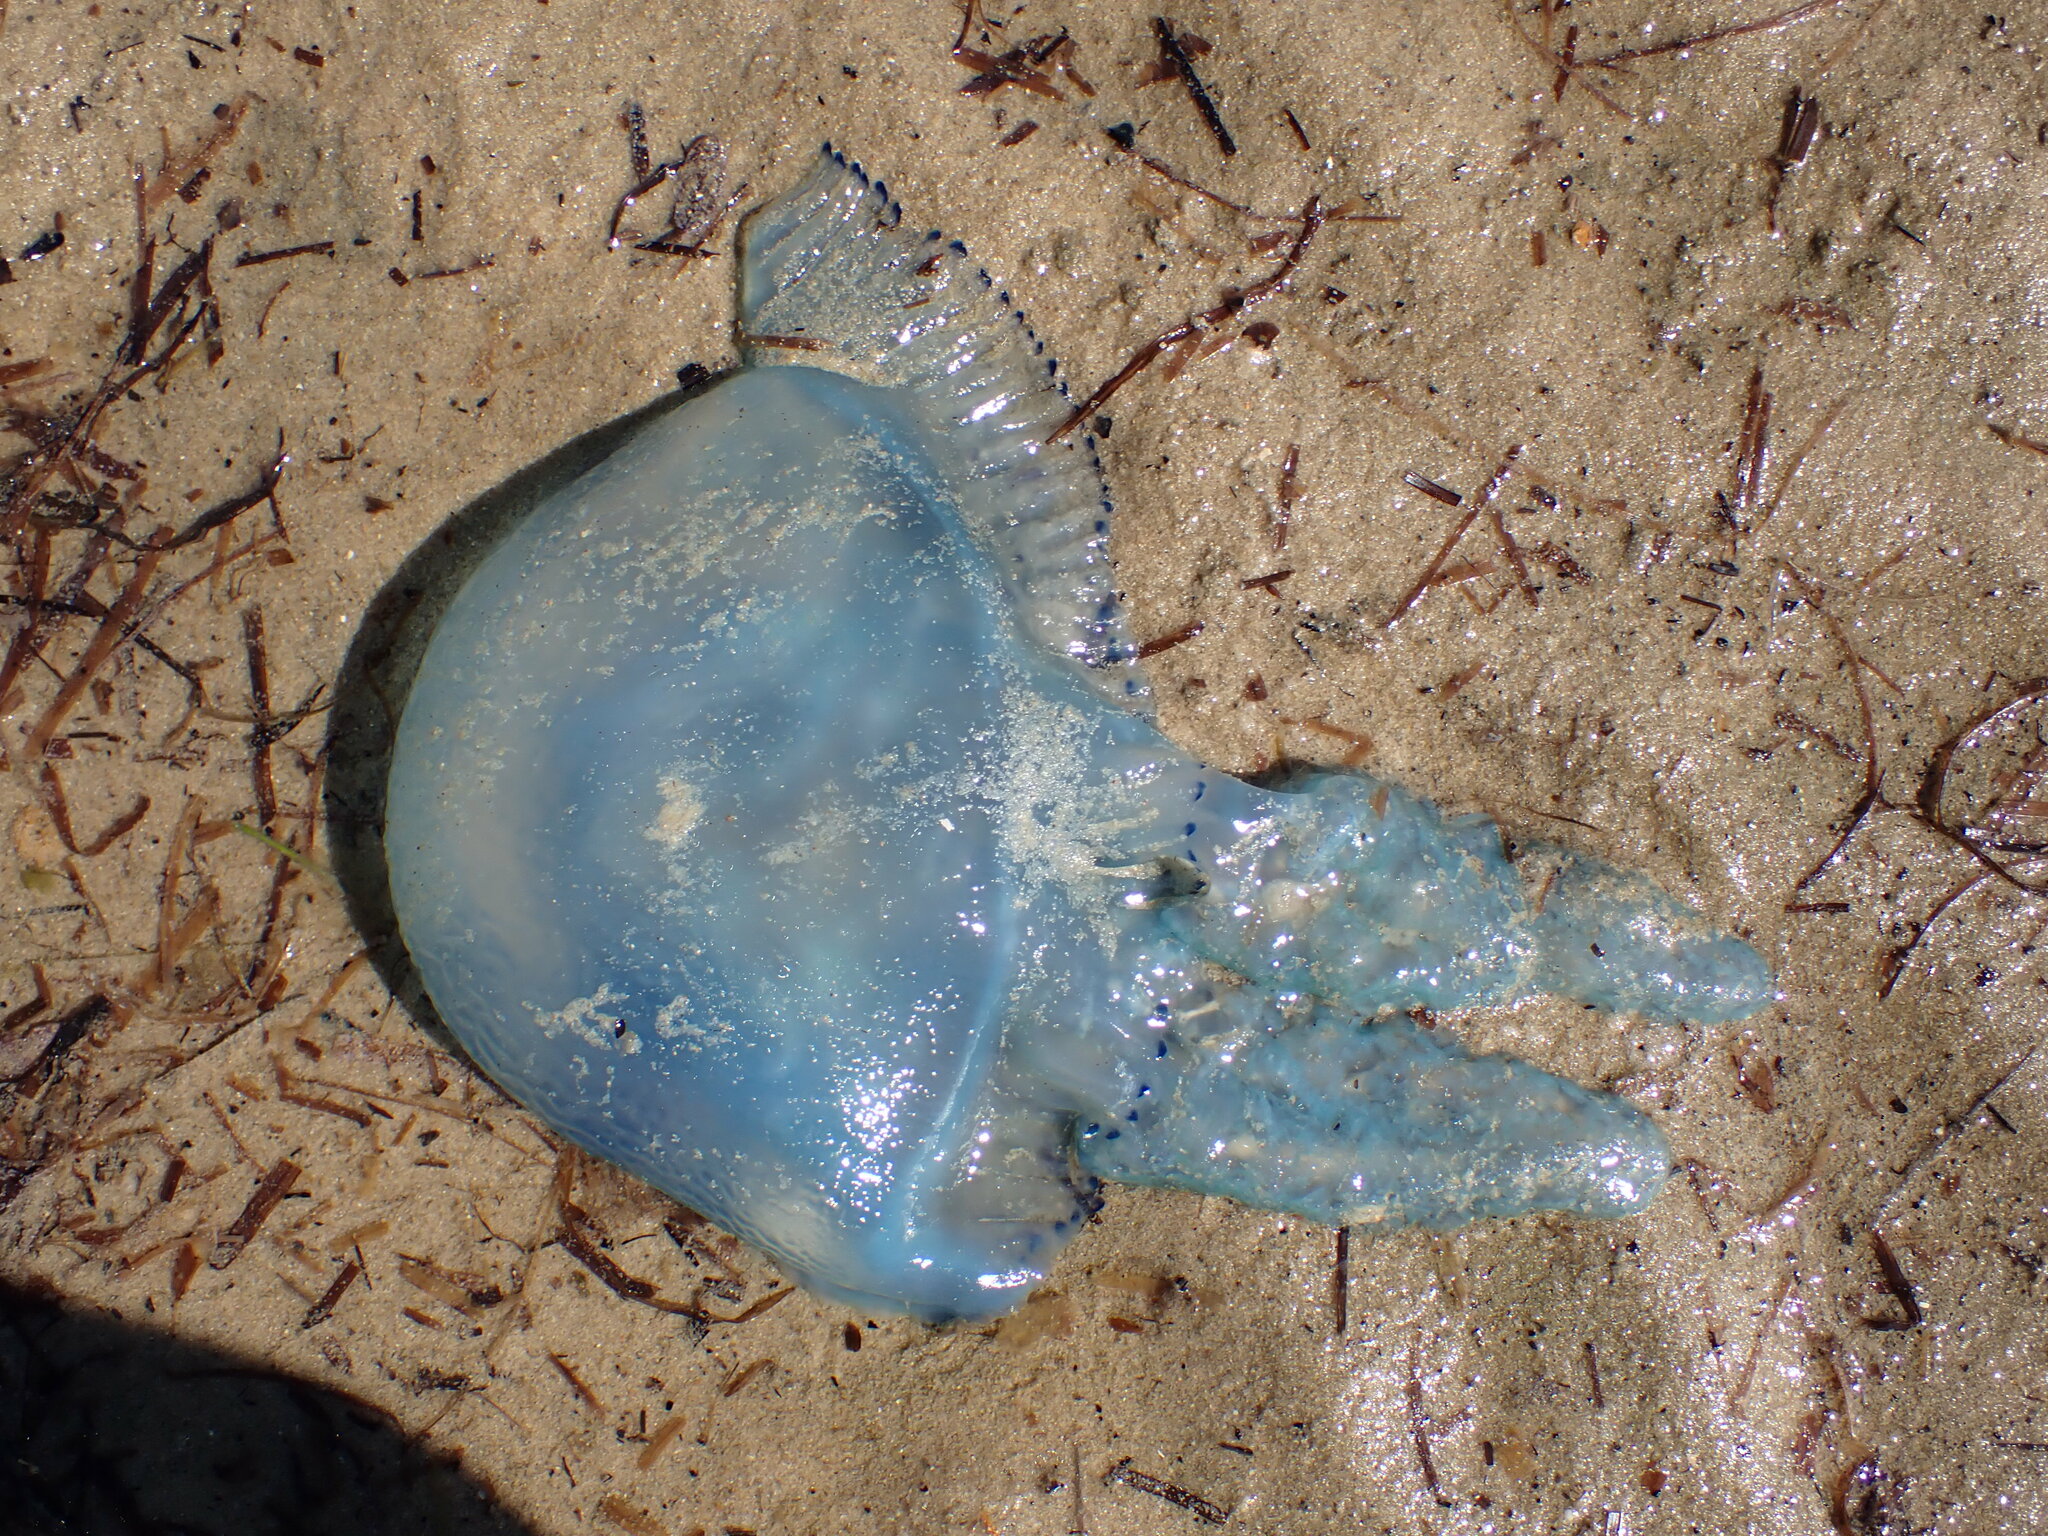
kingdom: Animalia
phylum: Cnidaria
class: Scyphozoa
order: Rhizostomeae
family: Catostylidae
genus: Catostylus
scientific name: Catostylus mosaicus
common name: Blue blubber
